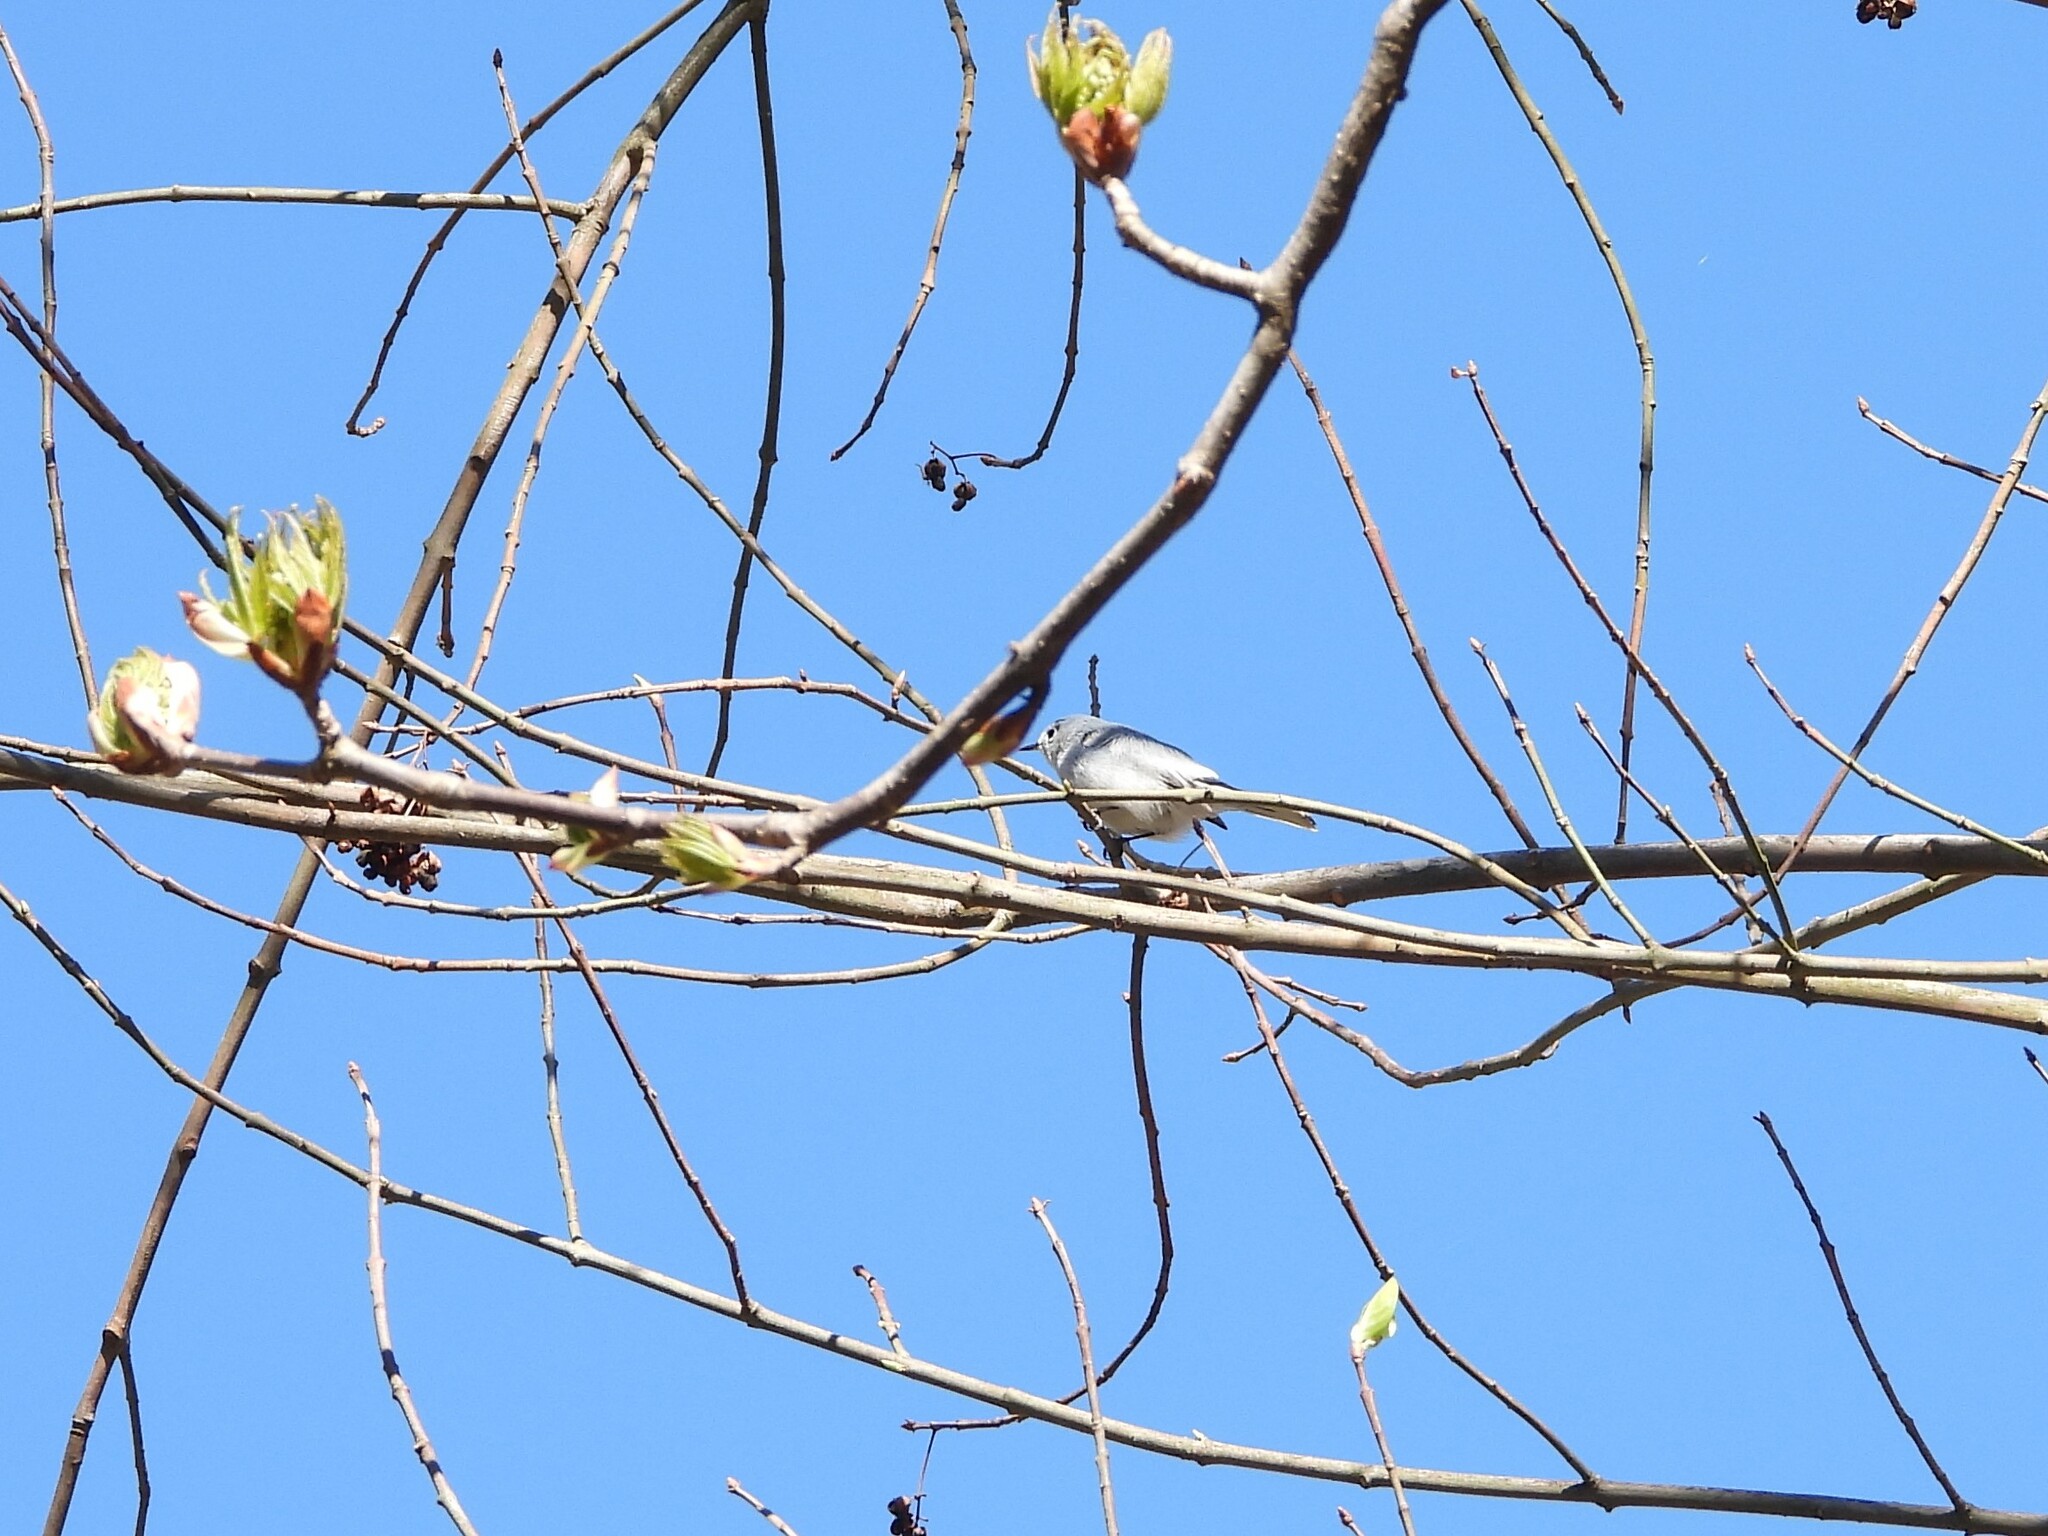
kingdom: Animalia
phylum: Chordata
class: Aves
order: Passeriformes
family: Polioptilidae
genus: Polioptila
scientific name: Polioptila caerulea
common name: Blue-gray gnatcatcher
